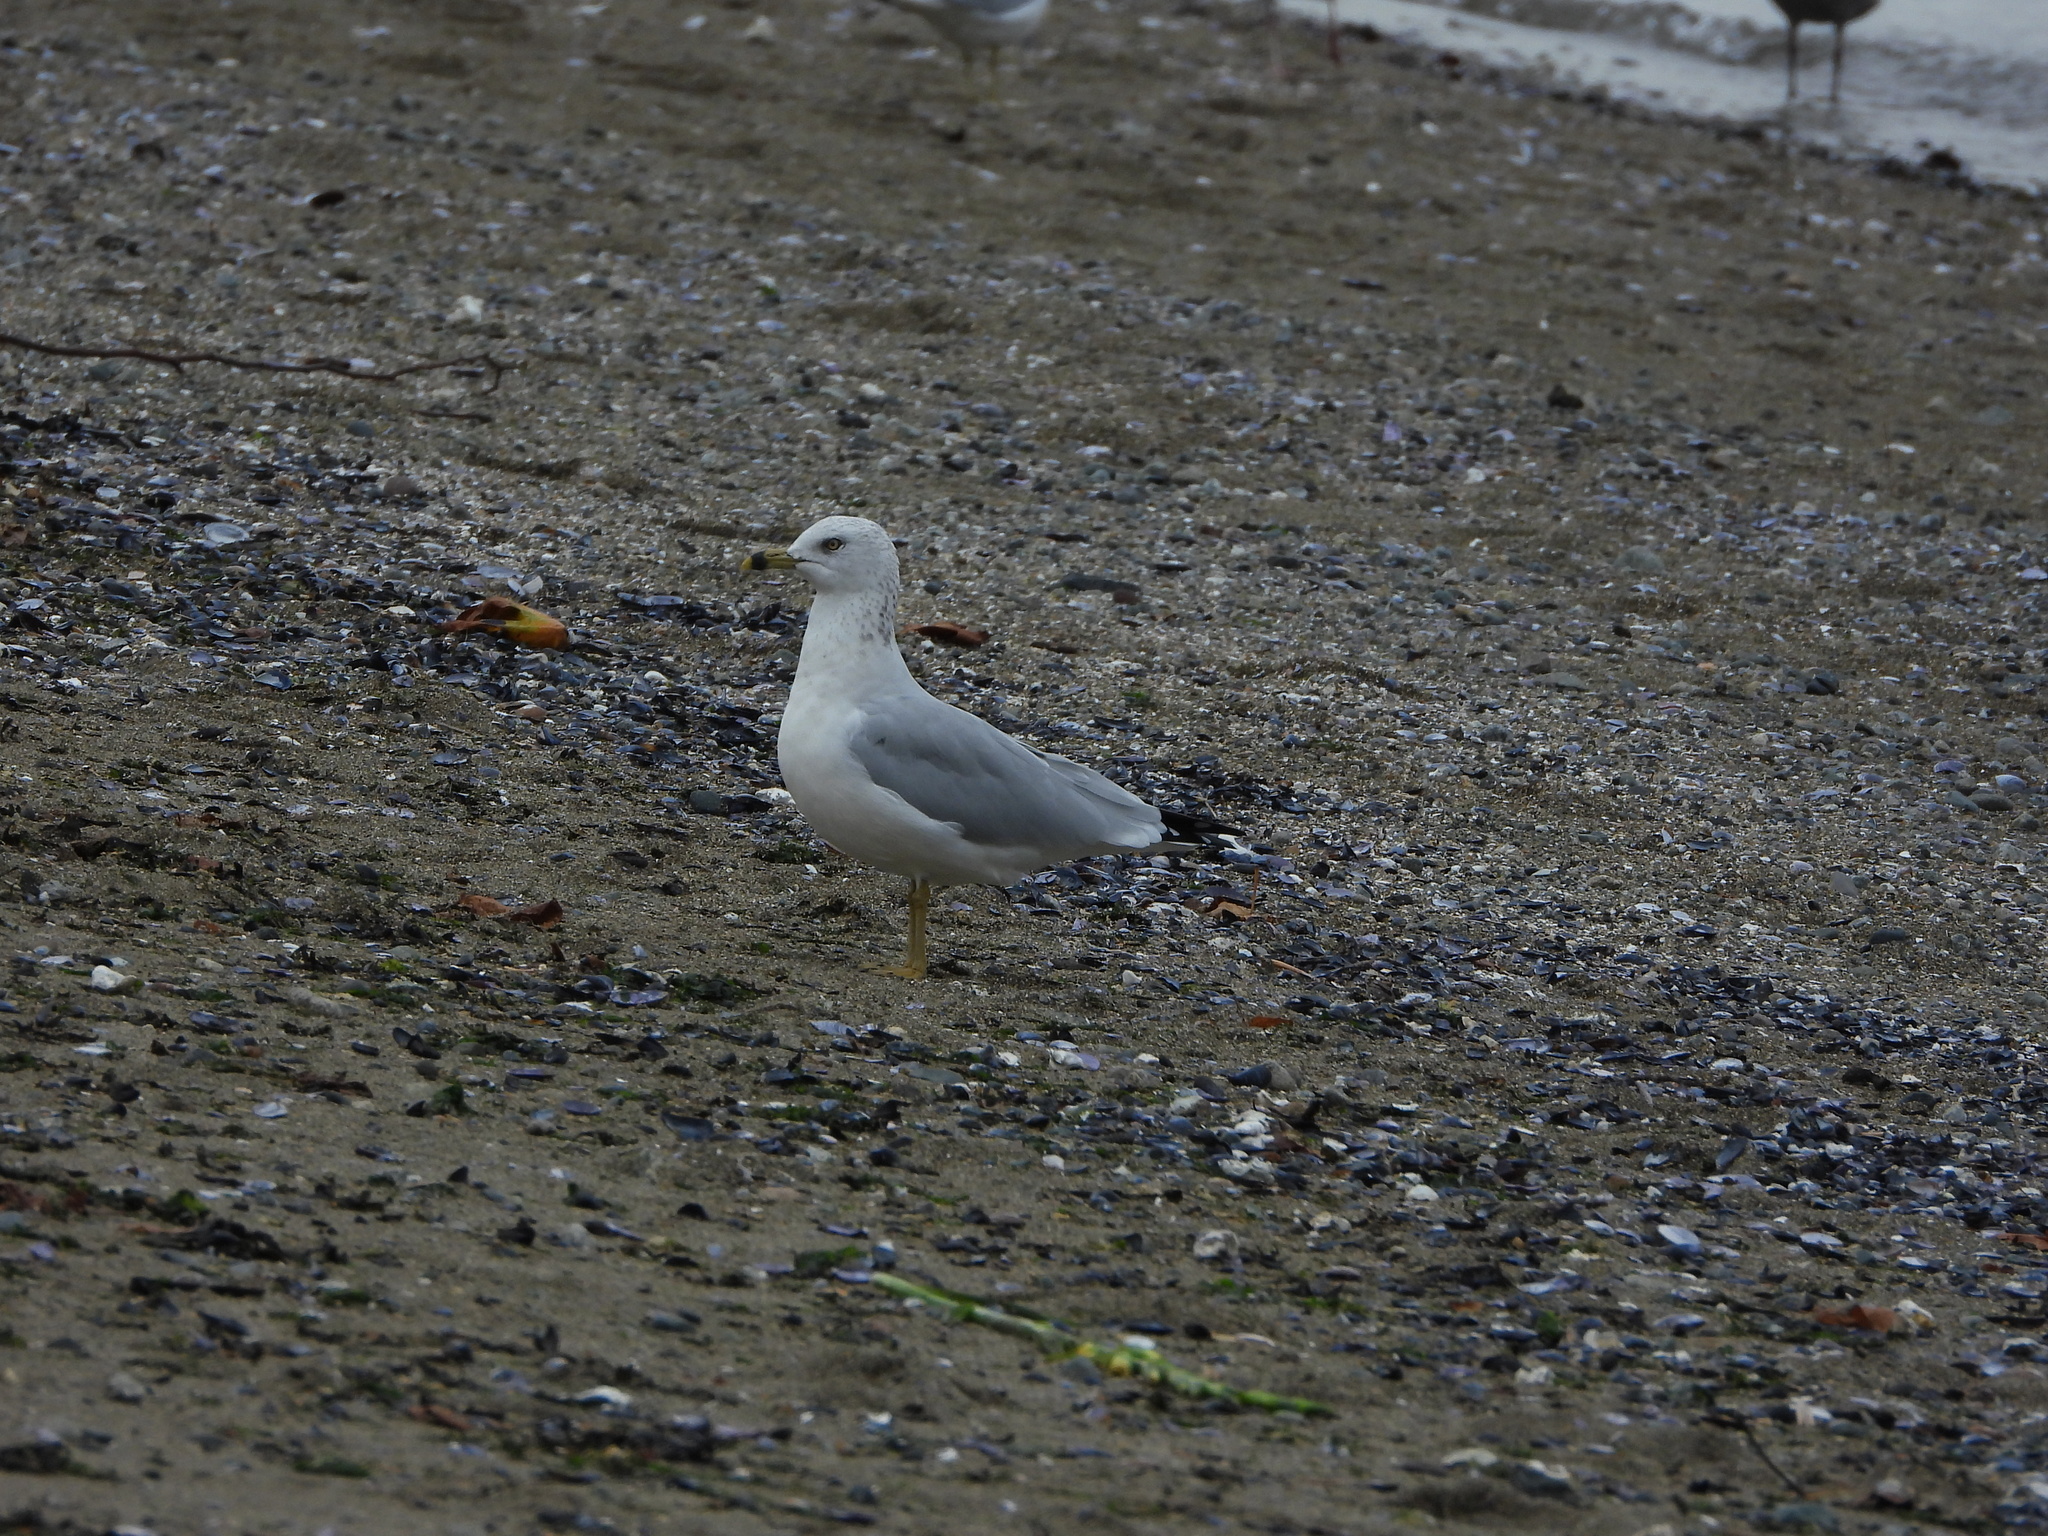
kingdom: Animalia
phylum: Chordata
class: Aves
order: Charadriiformes
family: Laridae
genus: Larus
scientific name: Larus delawarensis
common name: Ring-billed gull
